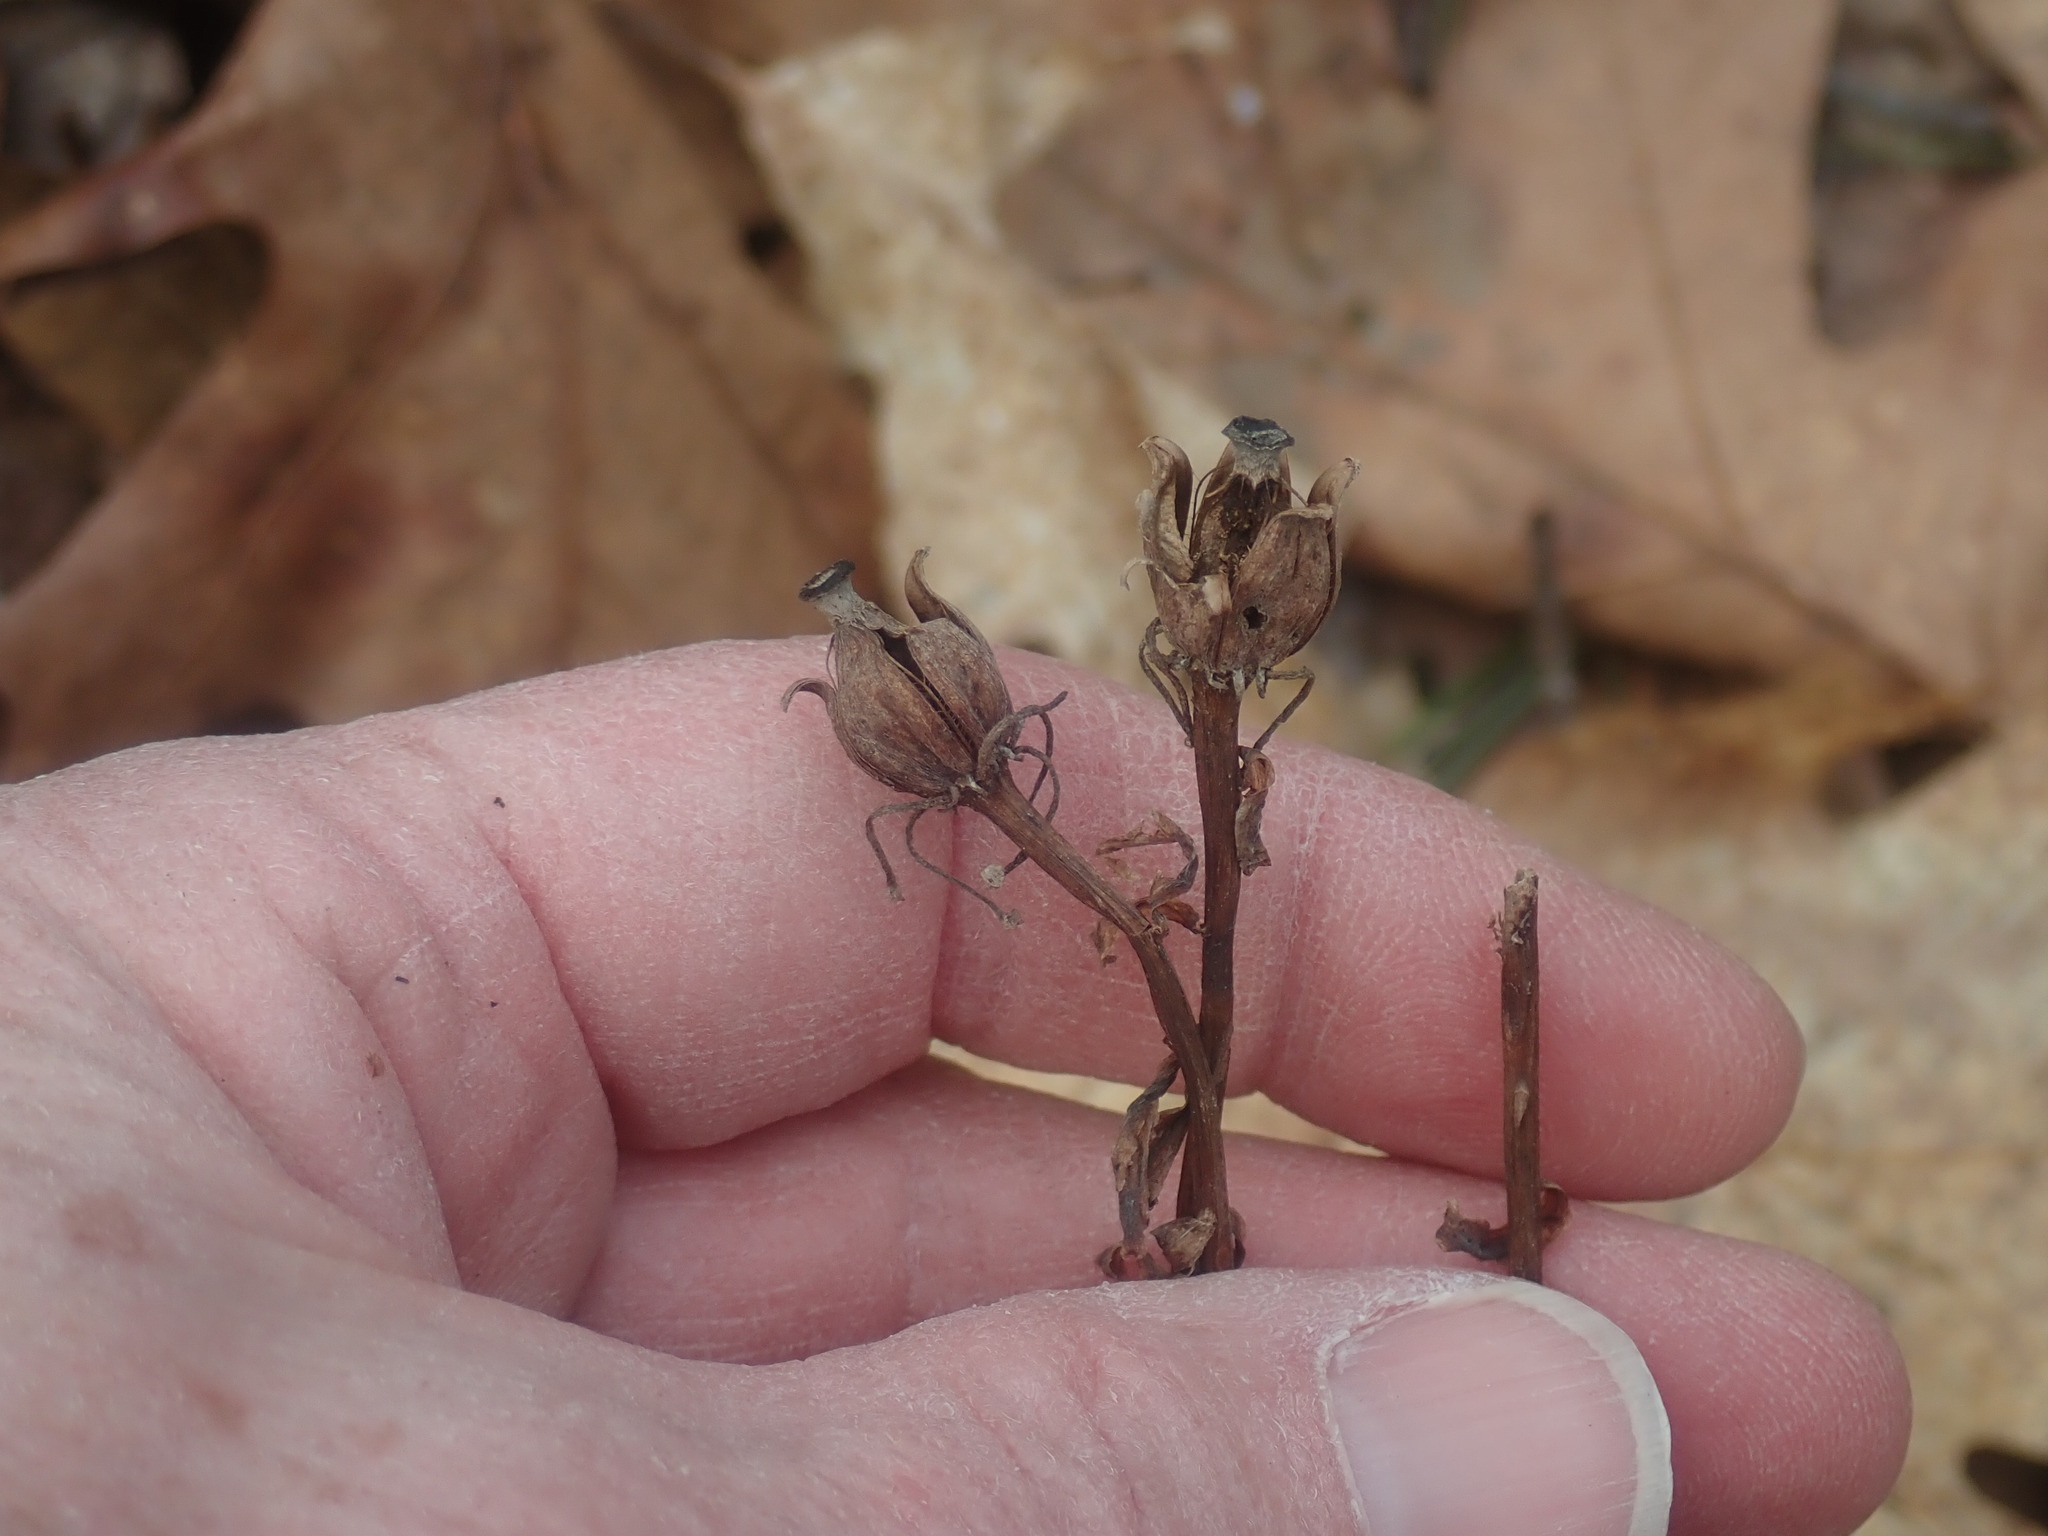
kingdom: Plantae
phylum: Tracheophyta
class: Magnoliopsida
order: Ericales
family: Ericaceae
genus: Monotropa
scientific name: Monotropa uniflora
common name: Convulsion root
